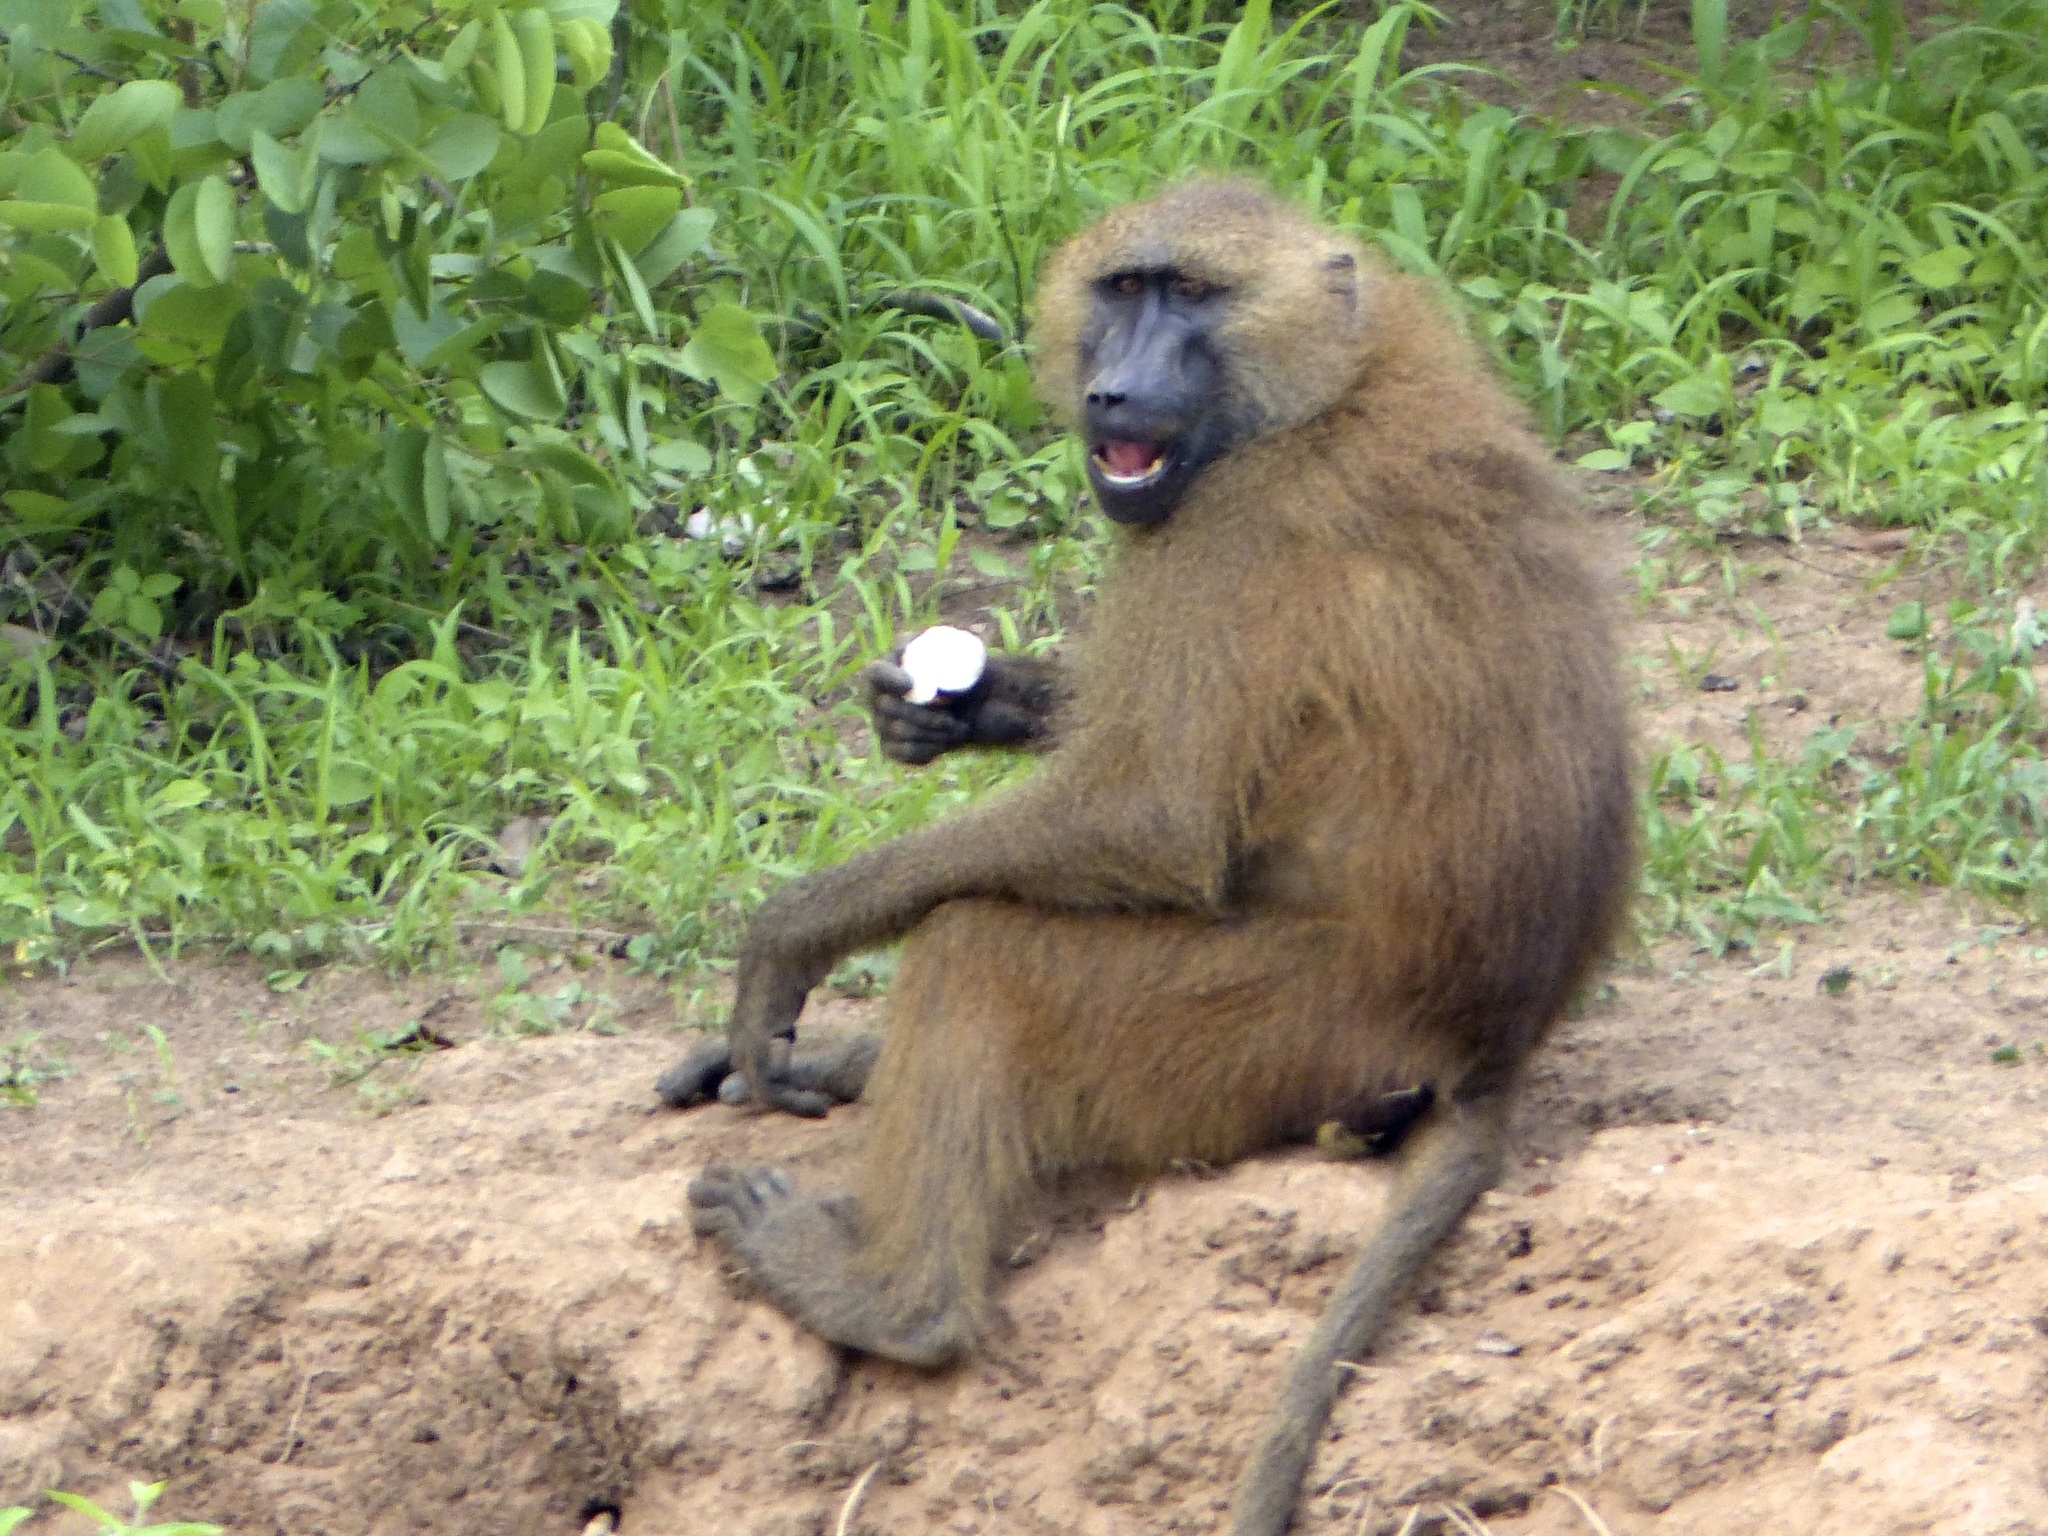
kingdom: Animalia
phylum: Chordata
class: Mammalia
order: Primates
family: Cercopithecidae
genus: Papio
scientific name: Papio papio
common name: Guinea baboon
